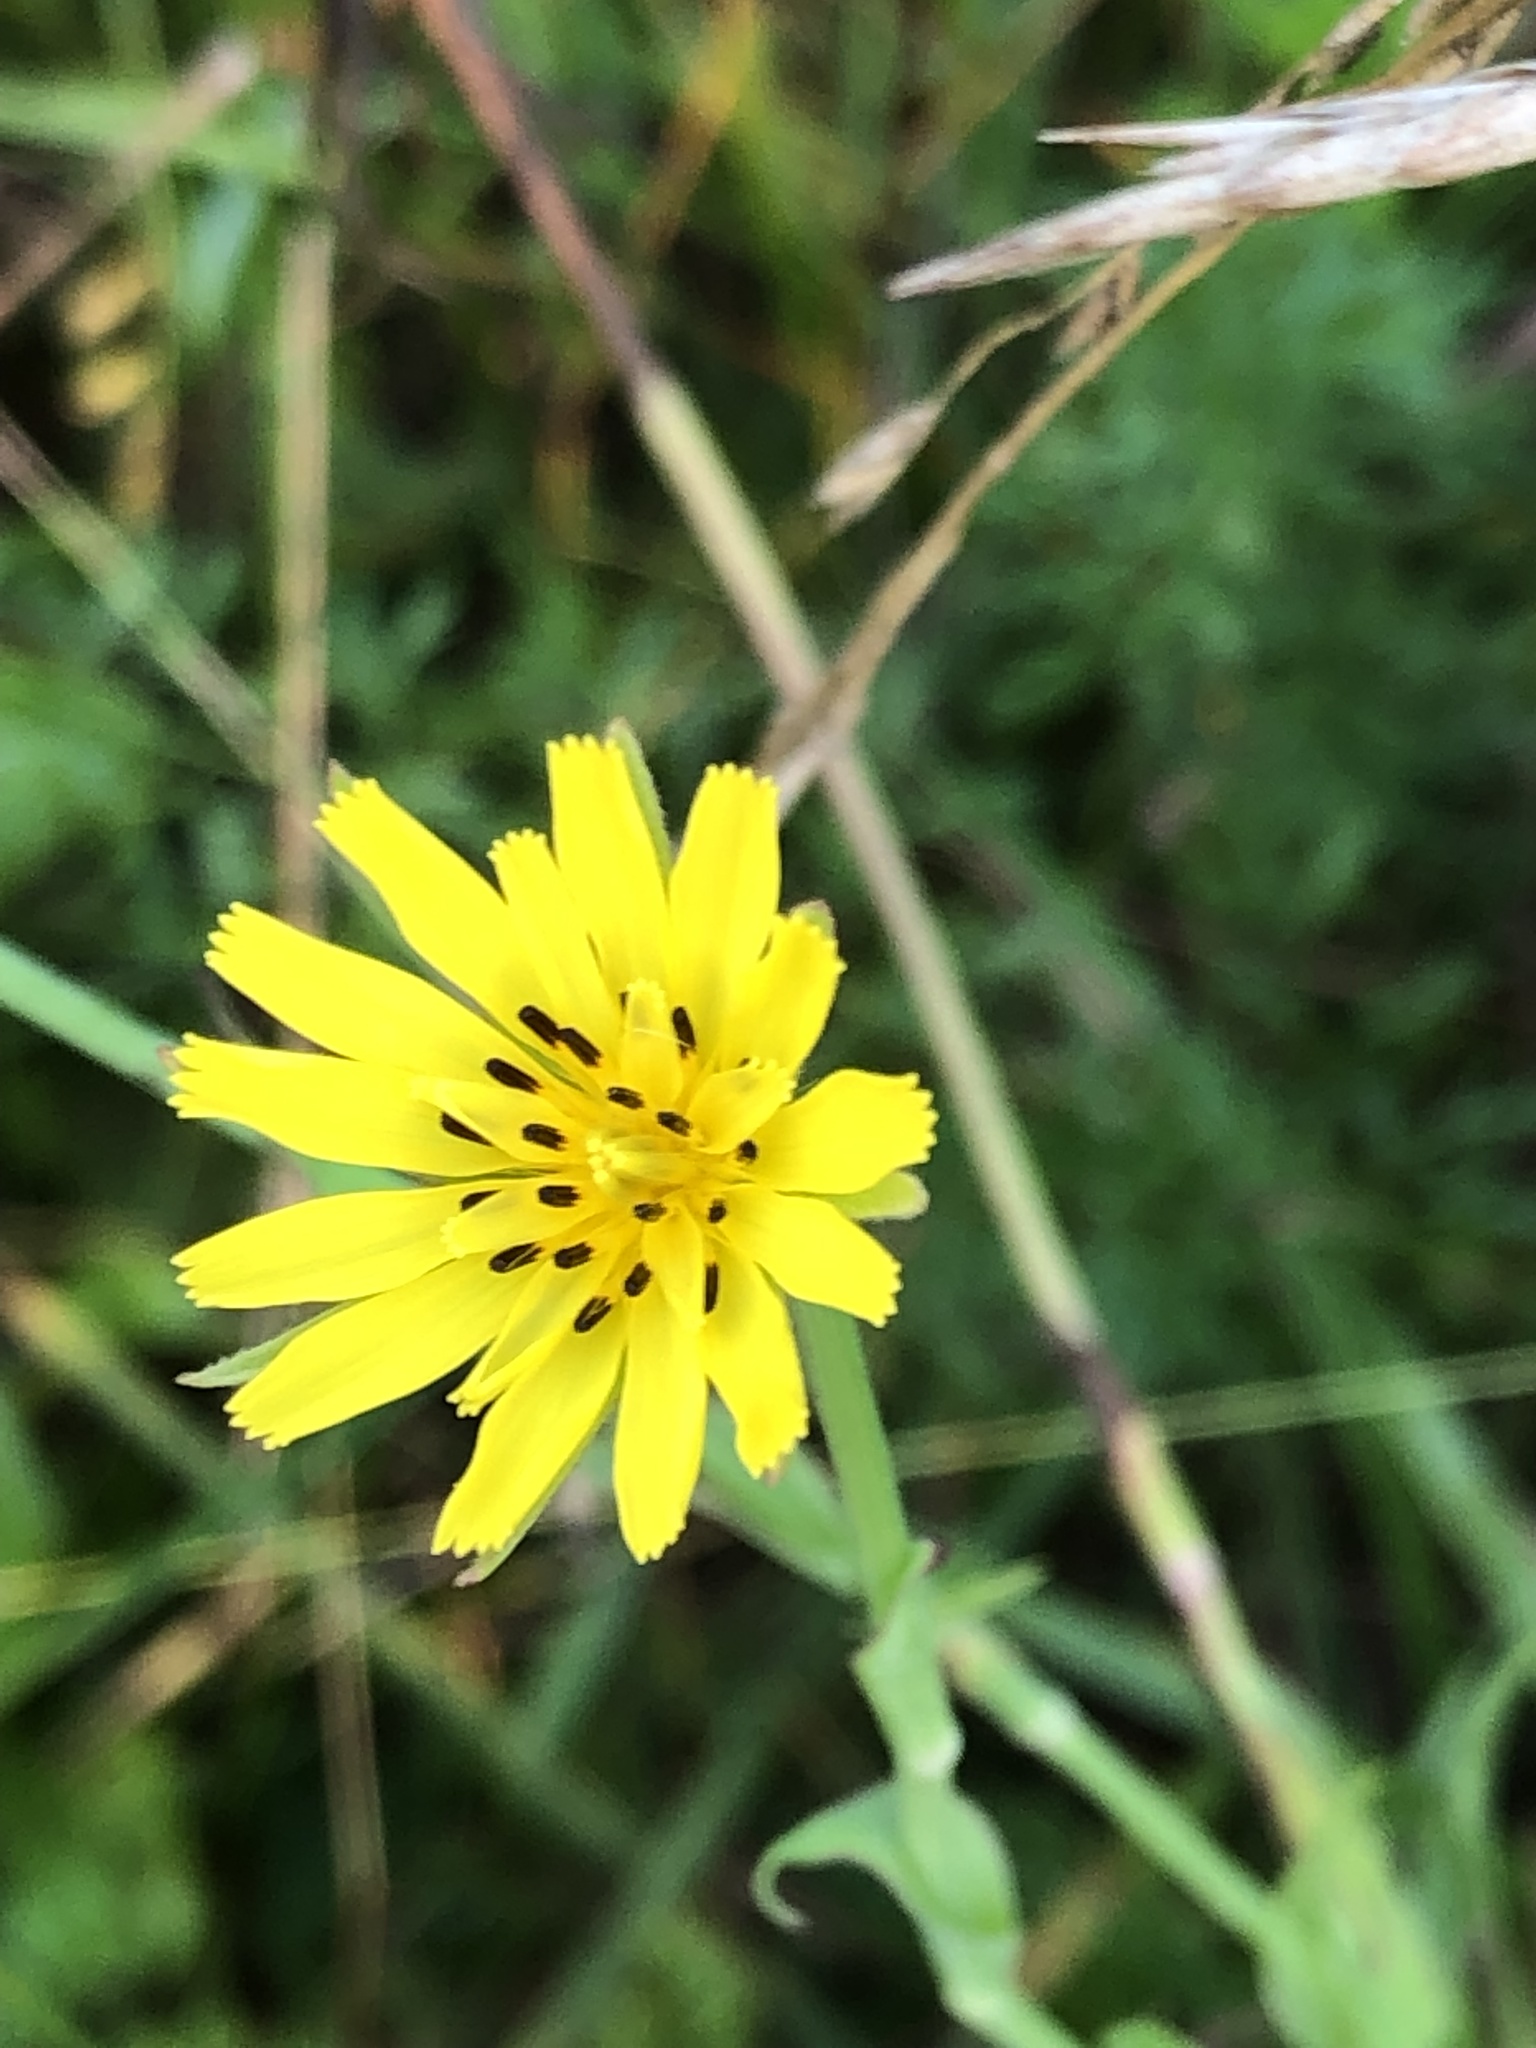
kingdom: Plantae
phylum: Tracheophyta
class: Magnoliopsida
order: Asterales
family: Asteraceae
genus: Tragopogon
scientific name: Tragopogon pratensis
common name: Goat's-beard
